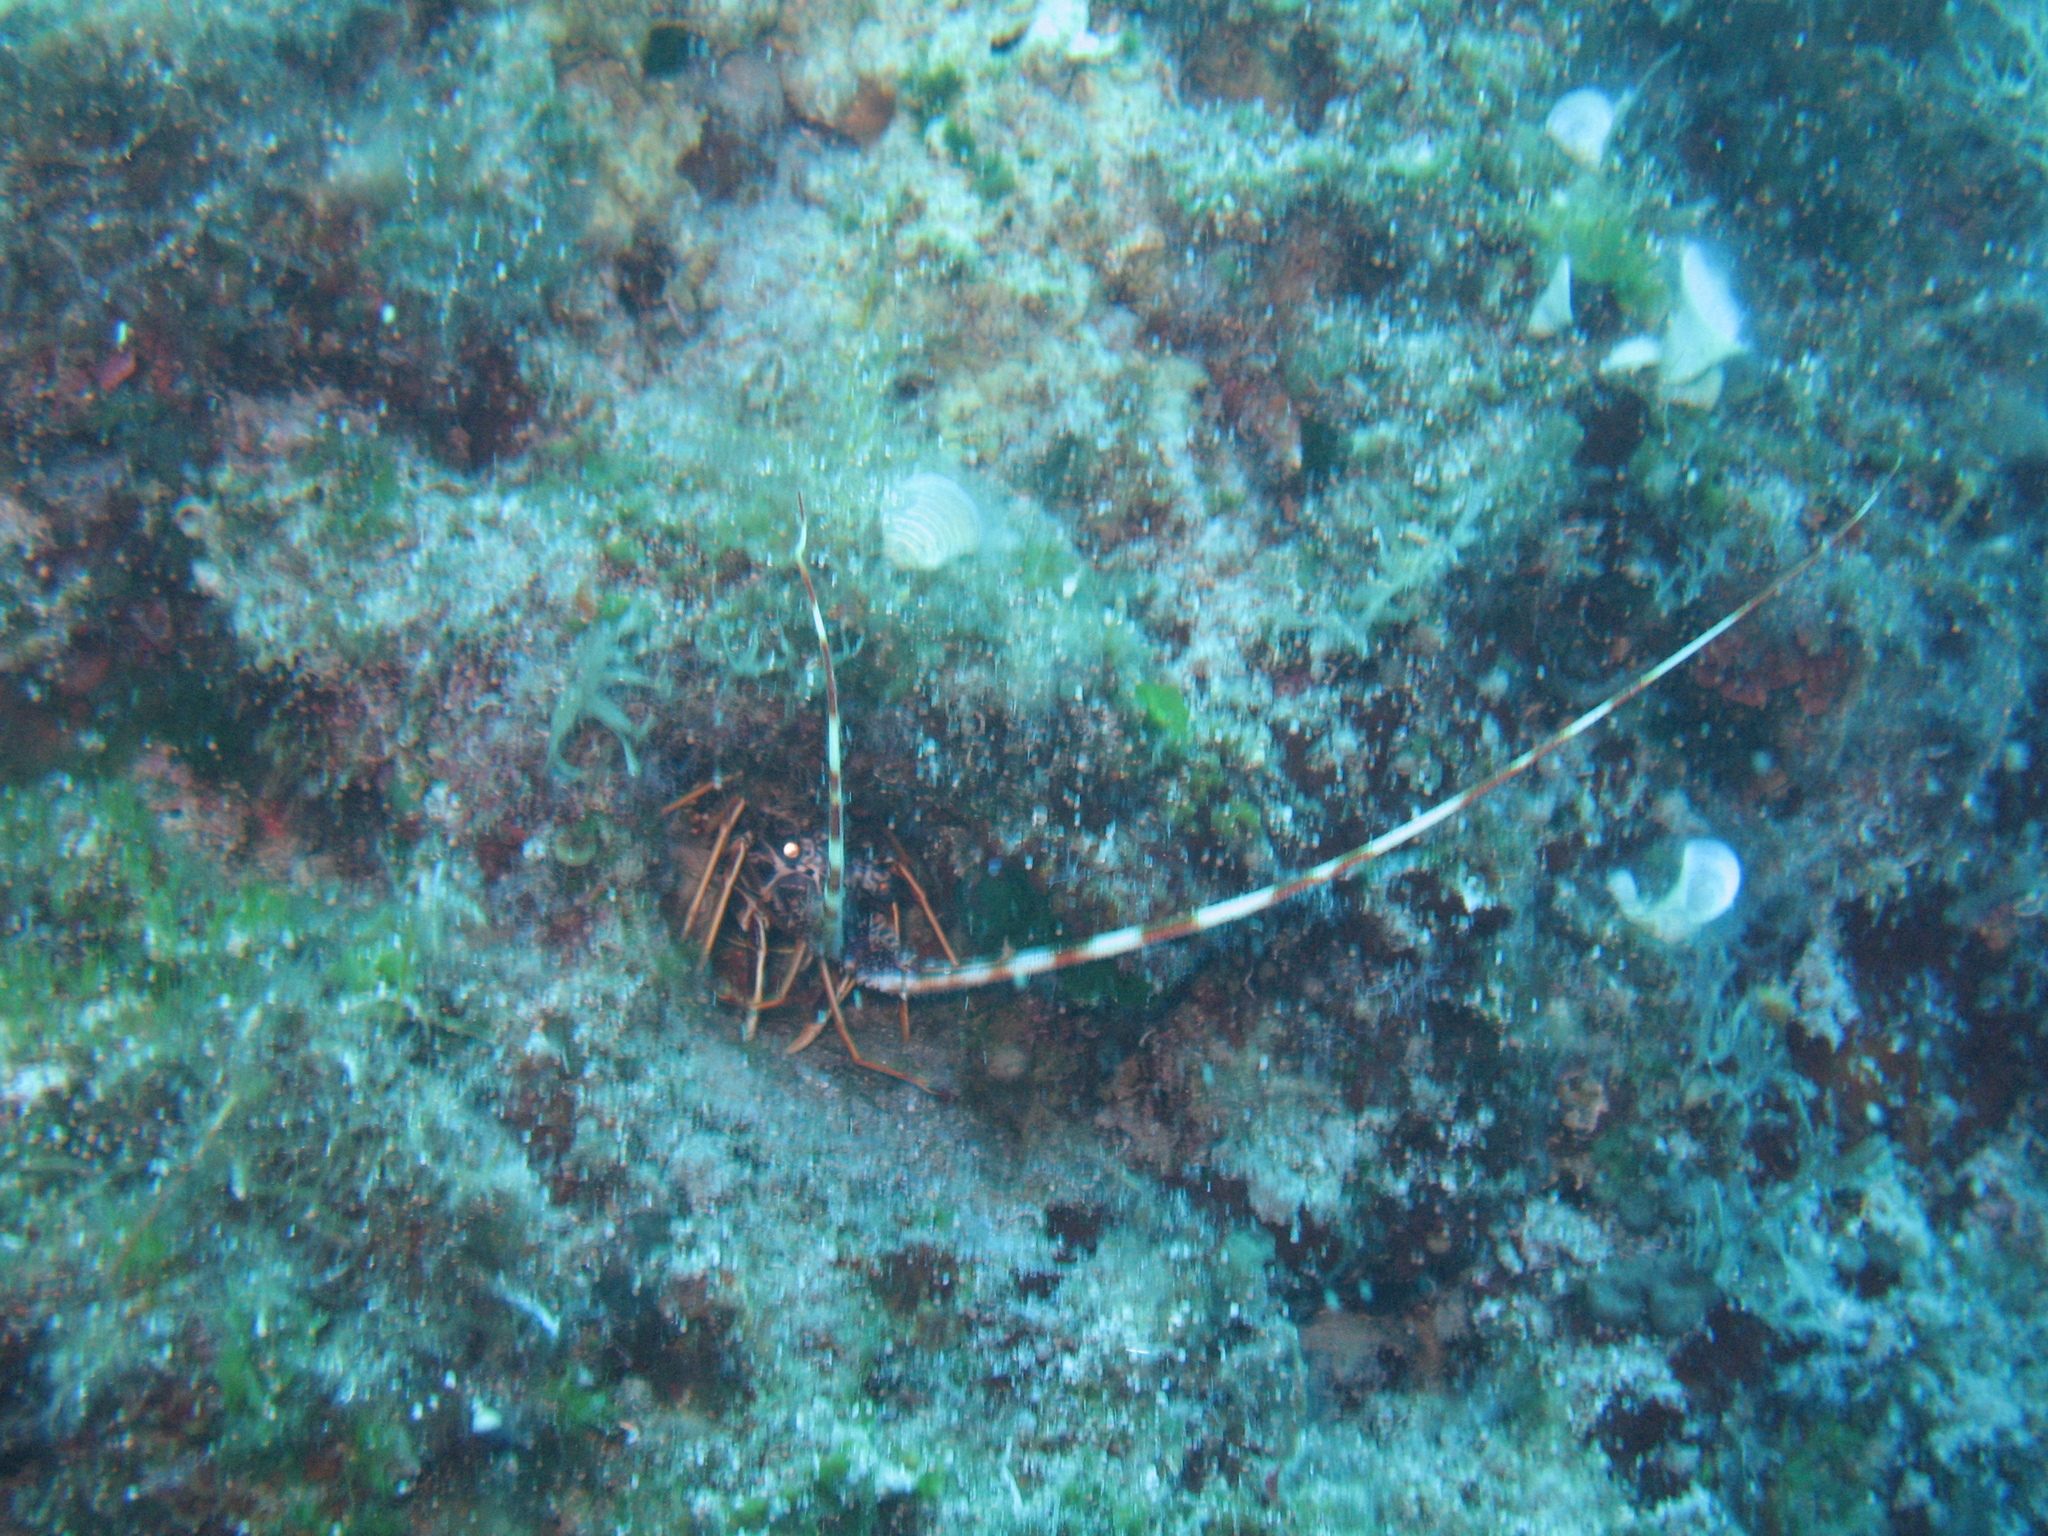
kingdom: Animalia
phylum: Arthropoda
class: Malacostraca
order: Decapoda
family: Palinuridae
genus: Palinurus
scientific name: Palinurus elephas
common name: European spiny lobster
